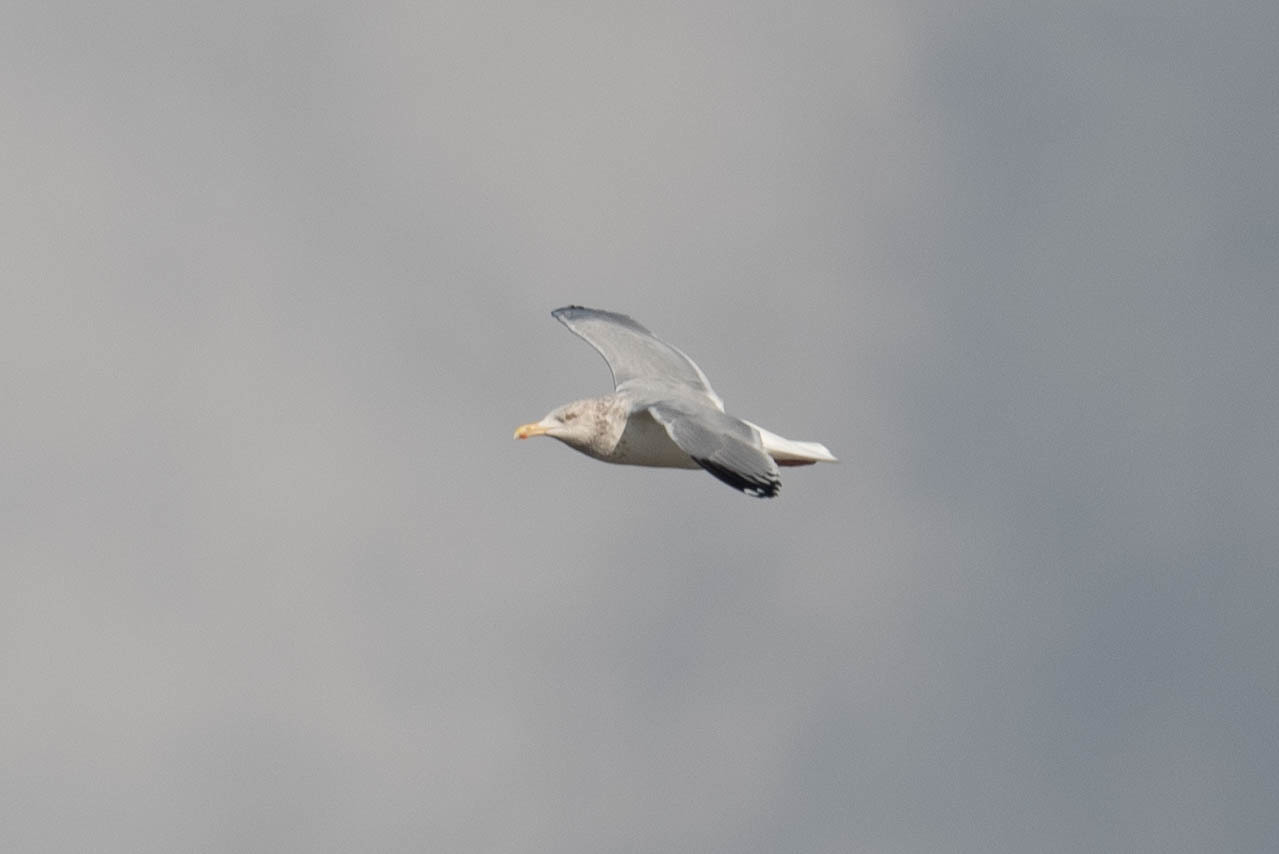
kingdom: Animalia
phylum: Chordata
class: Aves
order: Charadriiformes
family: Laridae
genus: Larus
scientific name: Larus argentatus
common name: Herring gull
